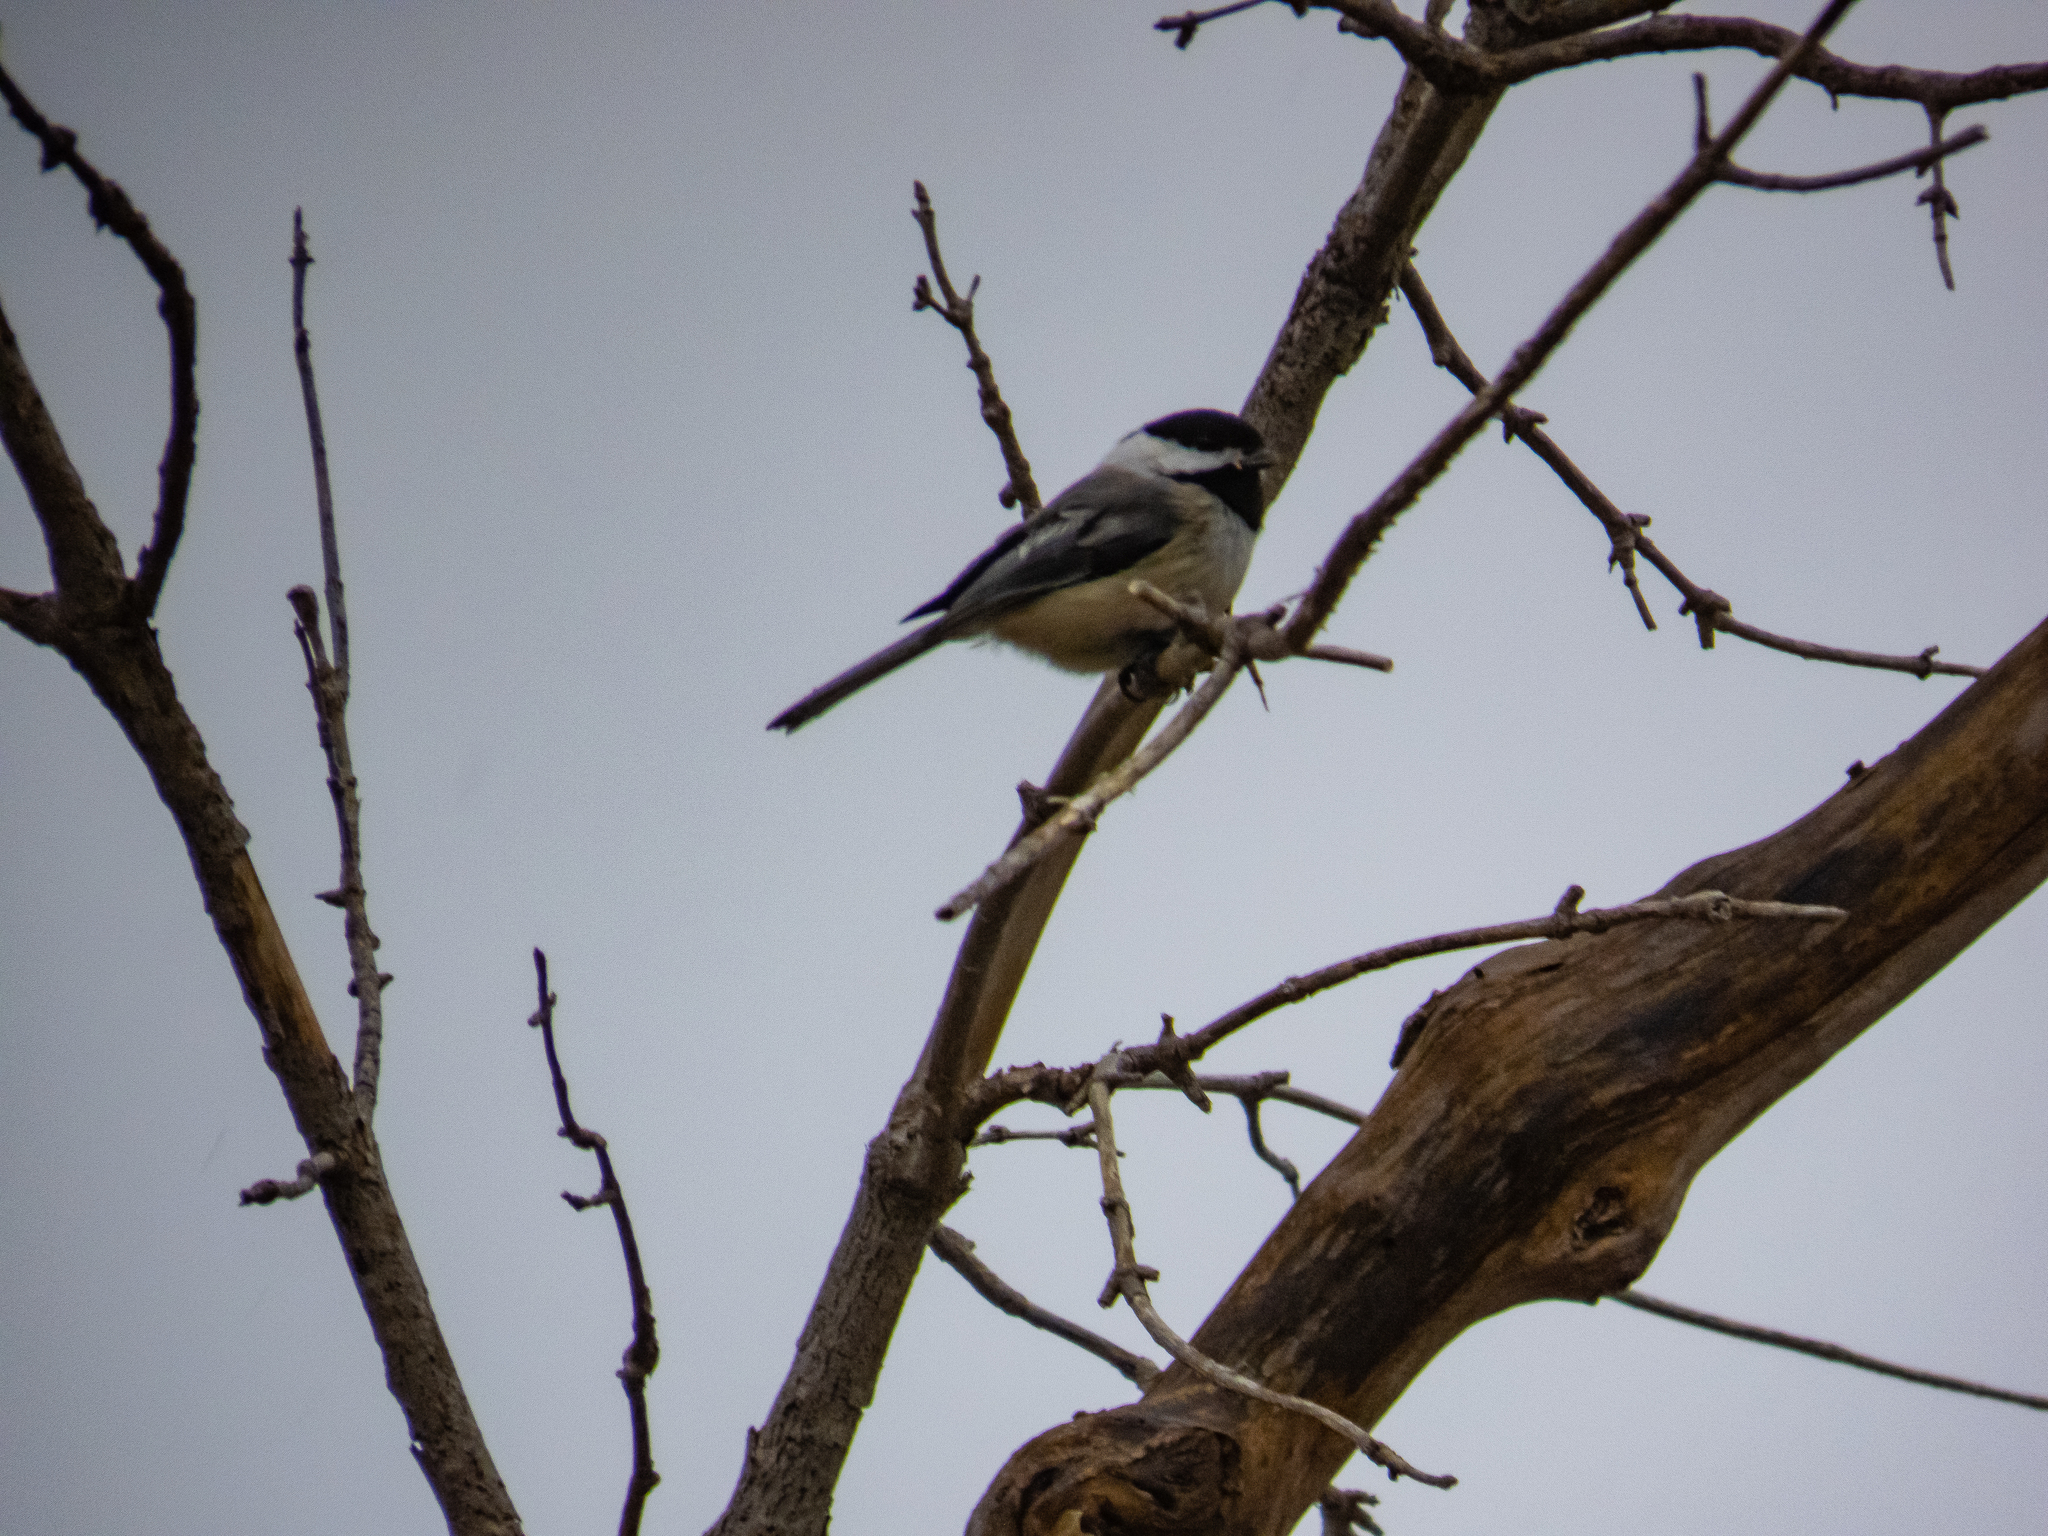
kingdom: Animalia
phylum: Chordata
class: Aves
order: Passeriformes
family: Paridae
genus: Poecile
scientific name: Poecile atricapillus
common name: Black-capped chickadee
